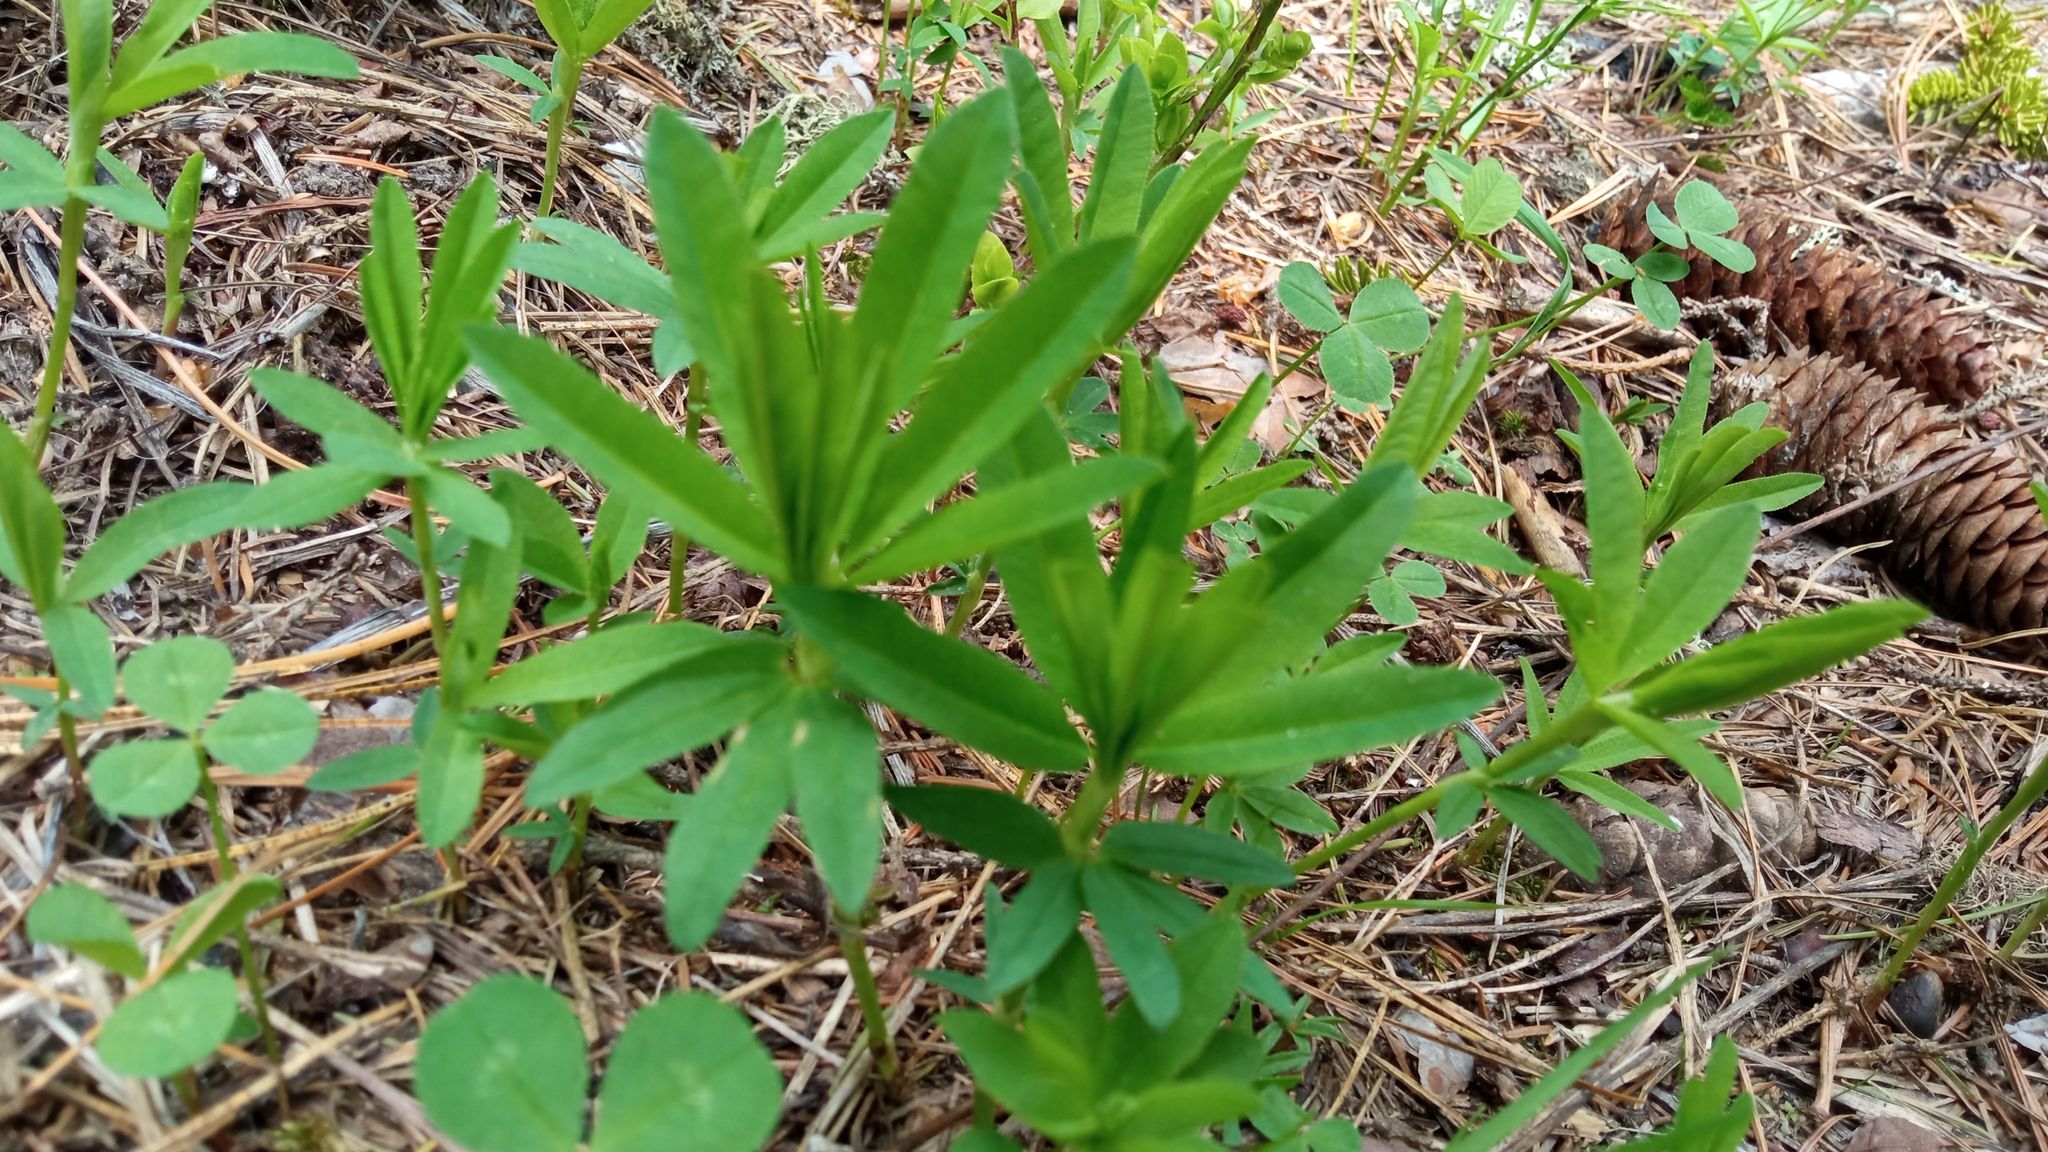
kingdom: Plantae
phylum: Tracheophyta
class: Magnoliopsida
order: Fabales
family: Fabaceae
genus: Trifolium
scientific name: Trifolium lupinaster
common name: Lupine clover
